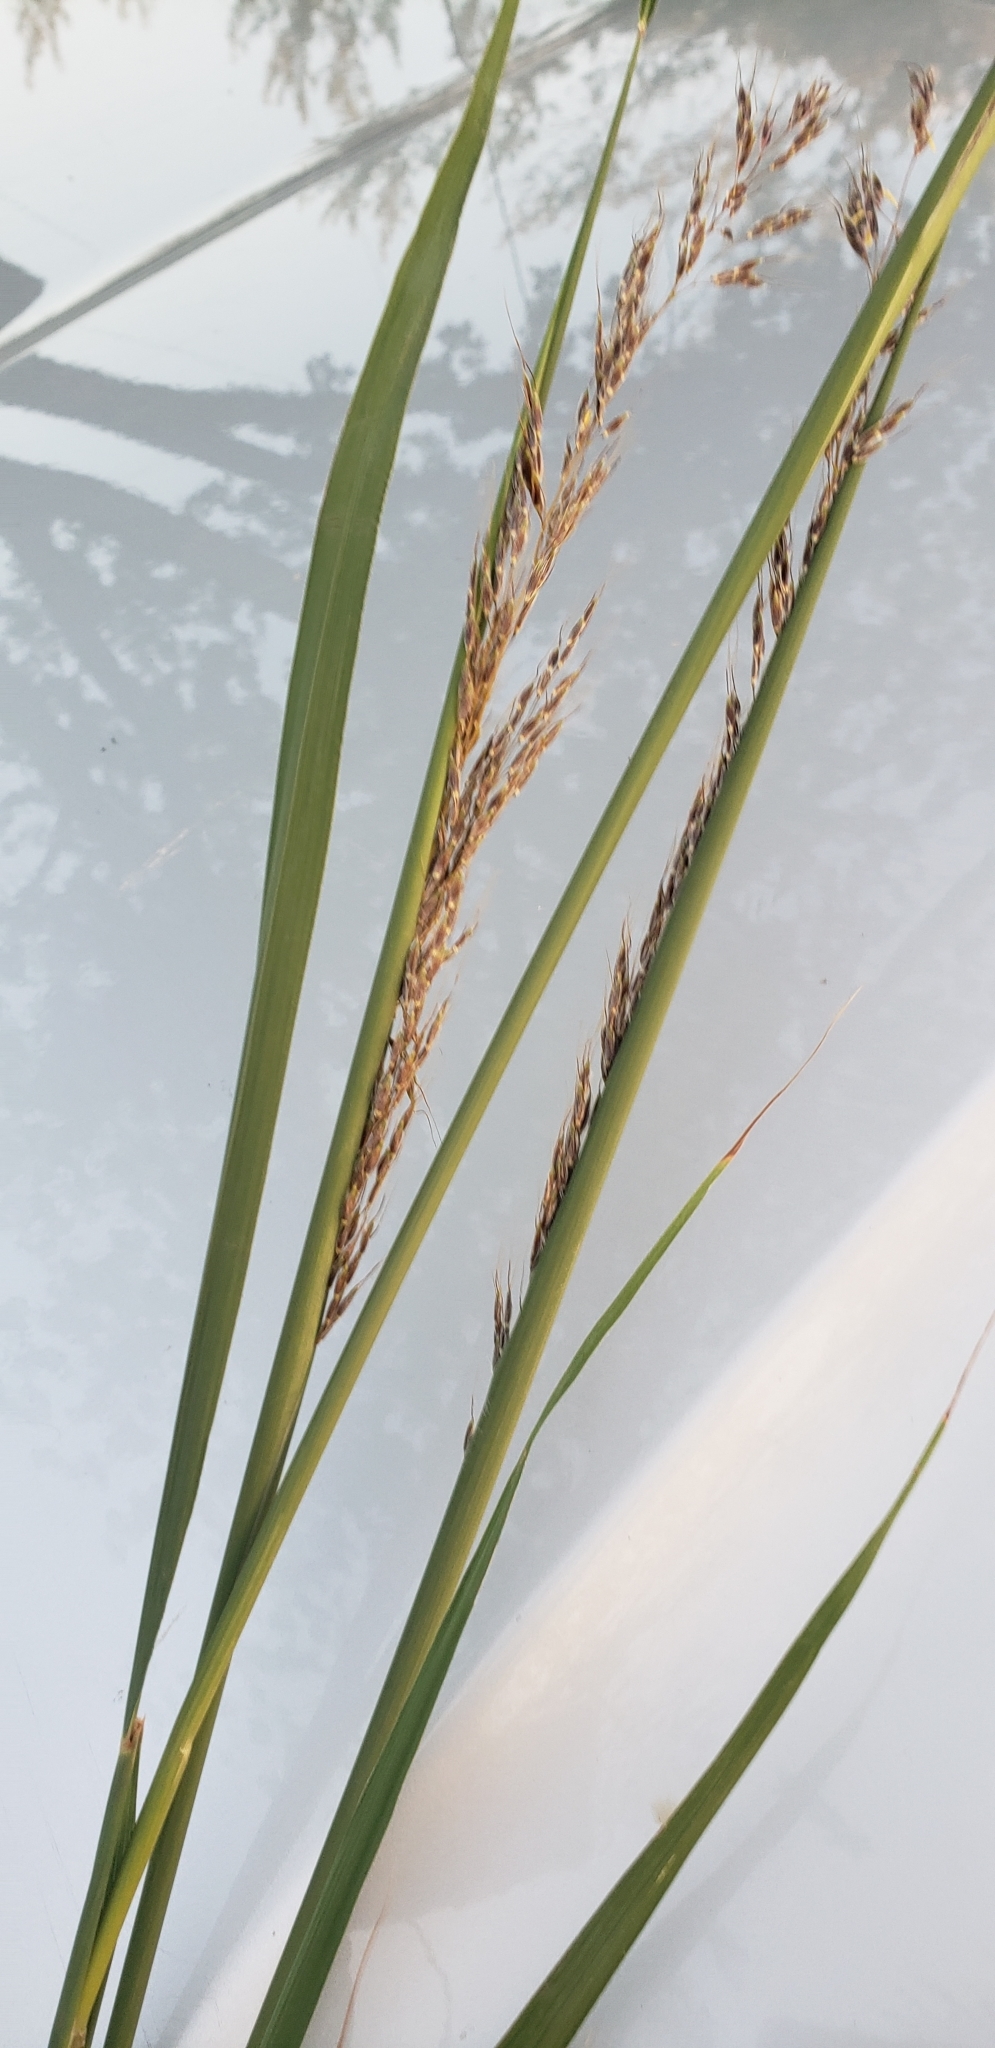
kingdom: Plantae
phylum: Tracheophyta
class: Liliopsida
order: Poales
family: Poaceae
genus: Sorghastrum
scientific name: Sorghastrum nutans
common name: Indian grass
